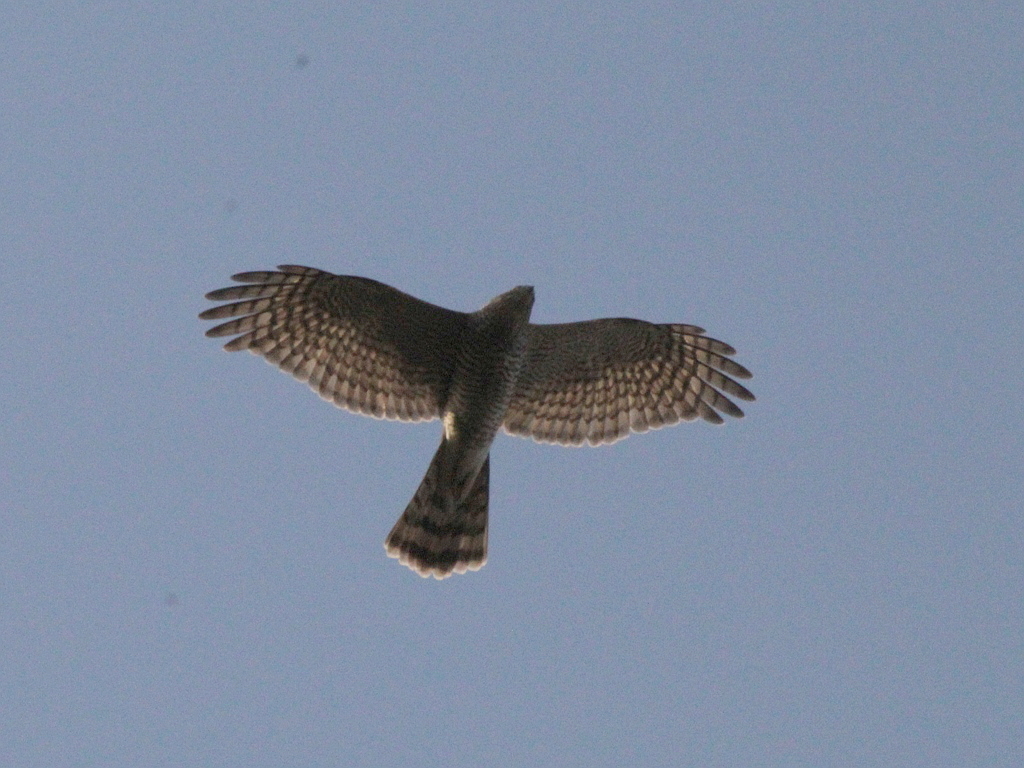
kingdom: Animalia
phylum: Chordata
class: Aves
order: Accipitriformes
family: Accipitridae
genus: Accipiter
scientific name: Accipiter nisus
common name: Eurasian sparrowhawk
